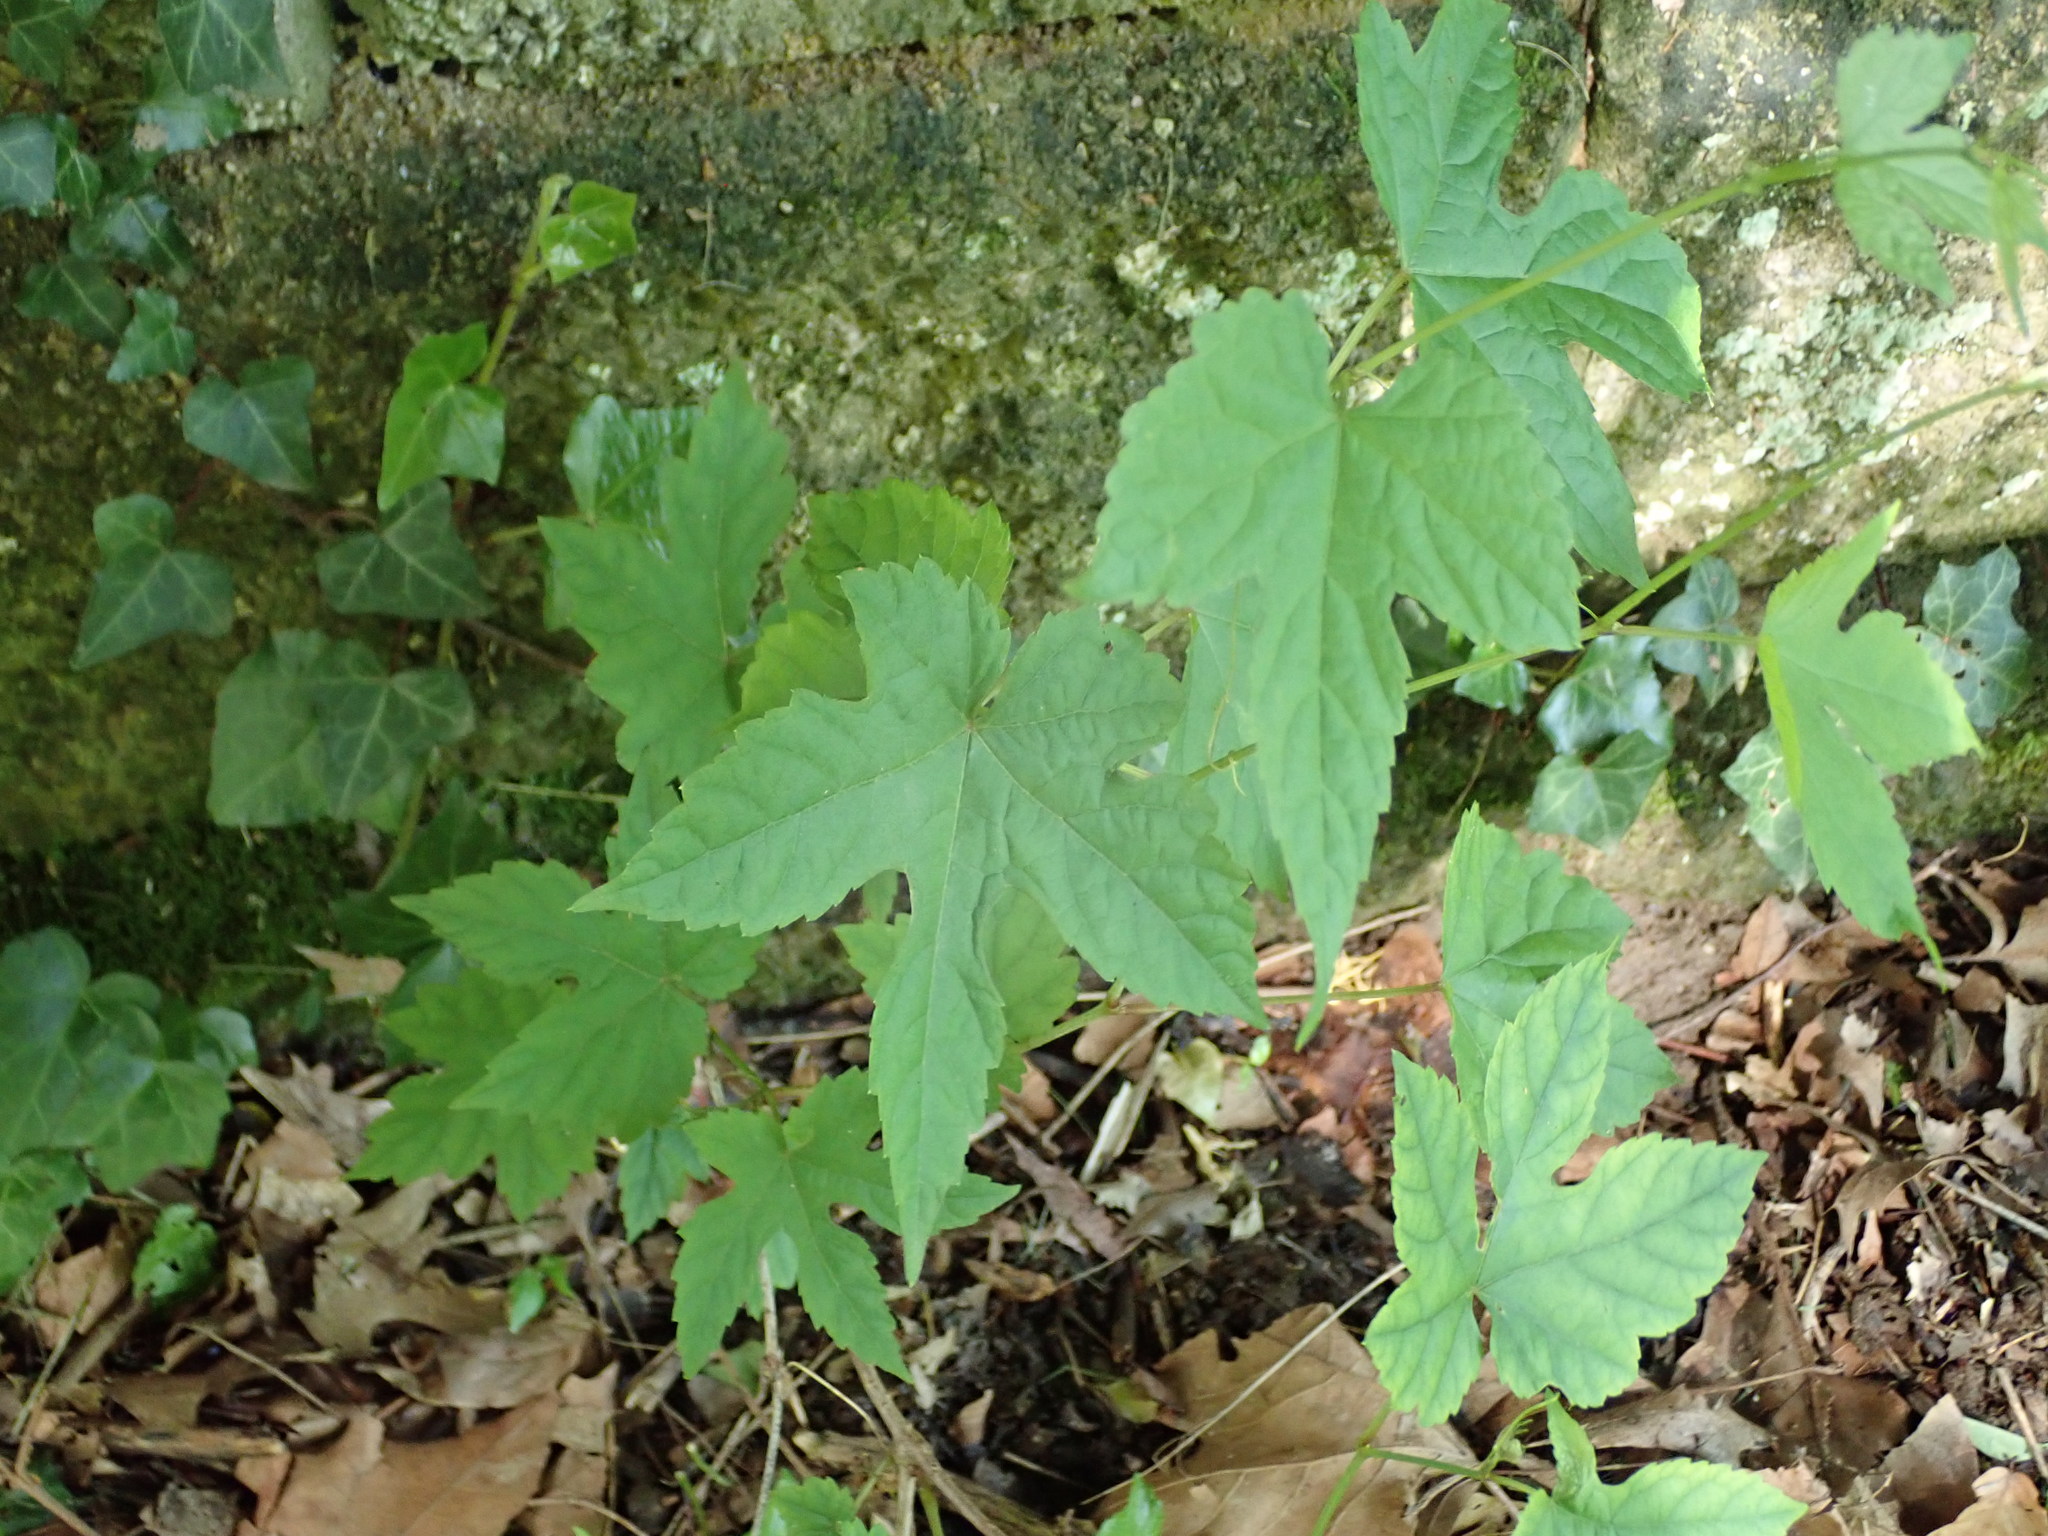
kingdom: Plantae
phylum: Tracheophyta
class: Magnoliopsida
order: Vitales
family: Vitaceae
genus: Ampelopsis
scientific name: Ampelopsis glandulosa
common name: Amur peppervine
